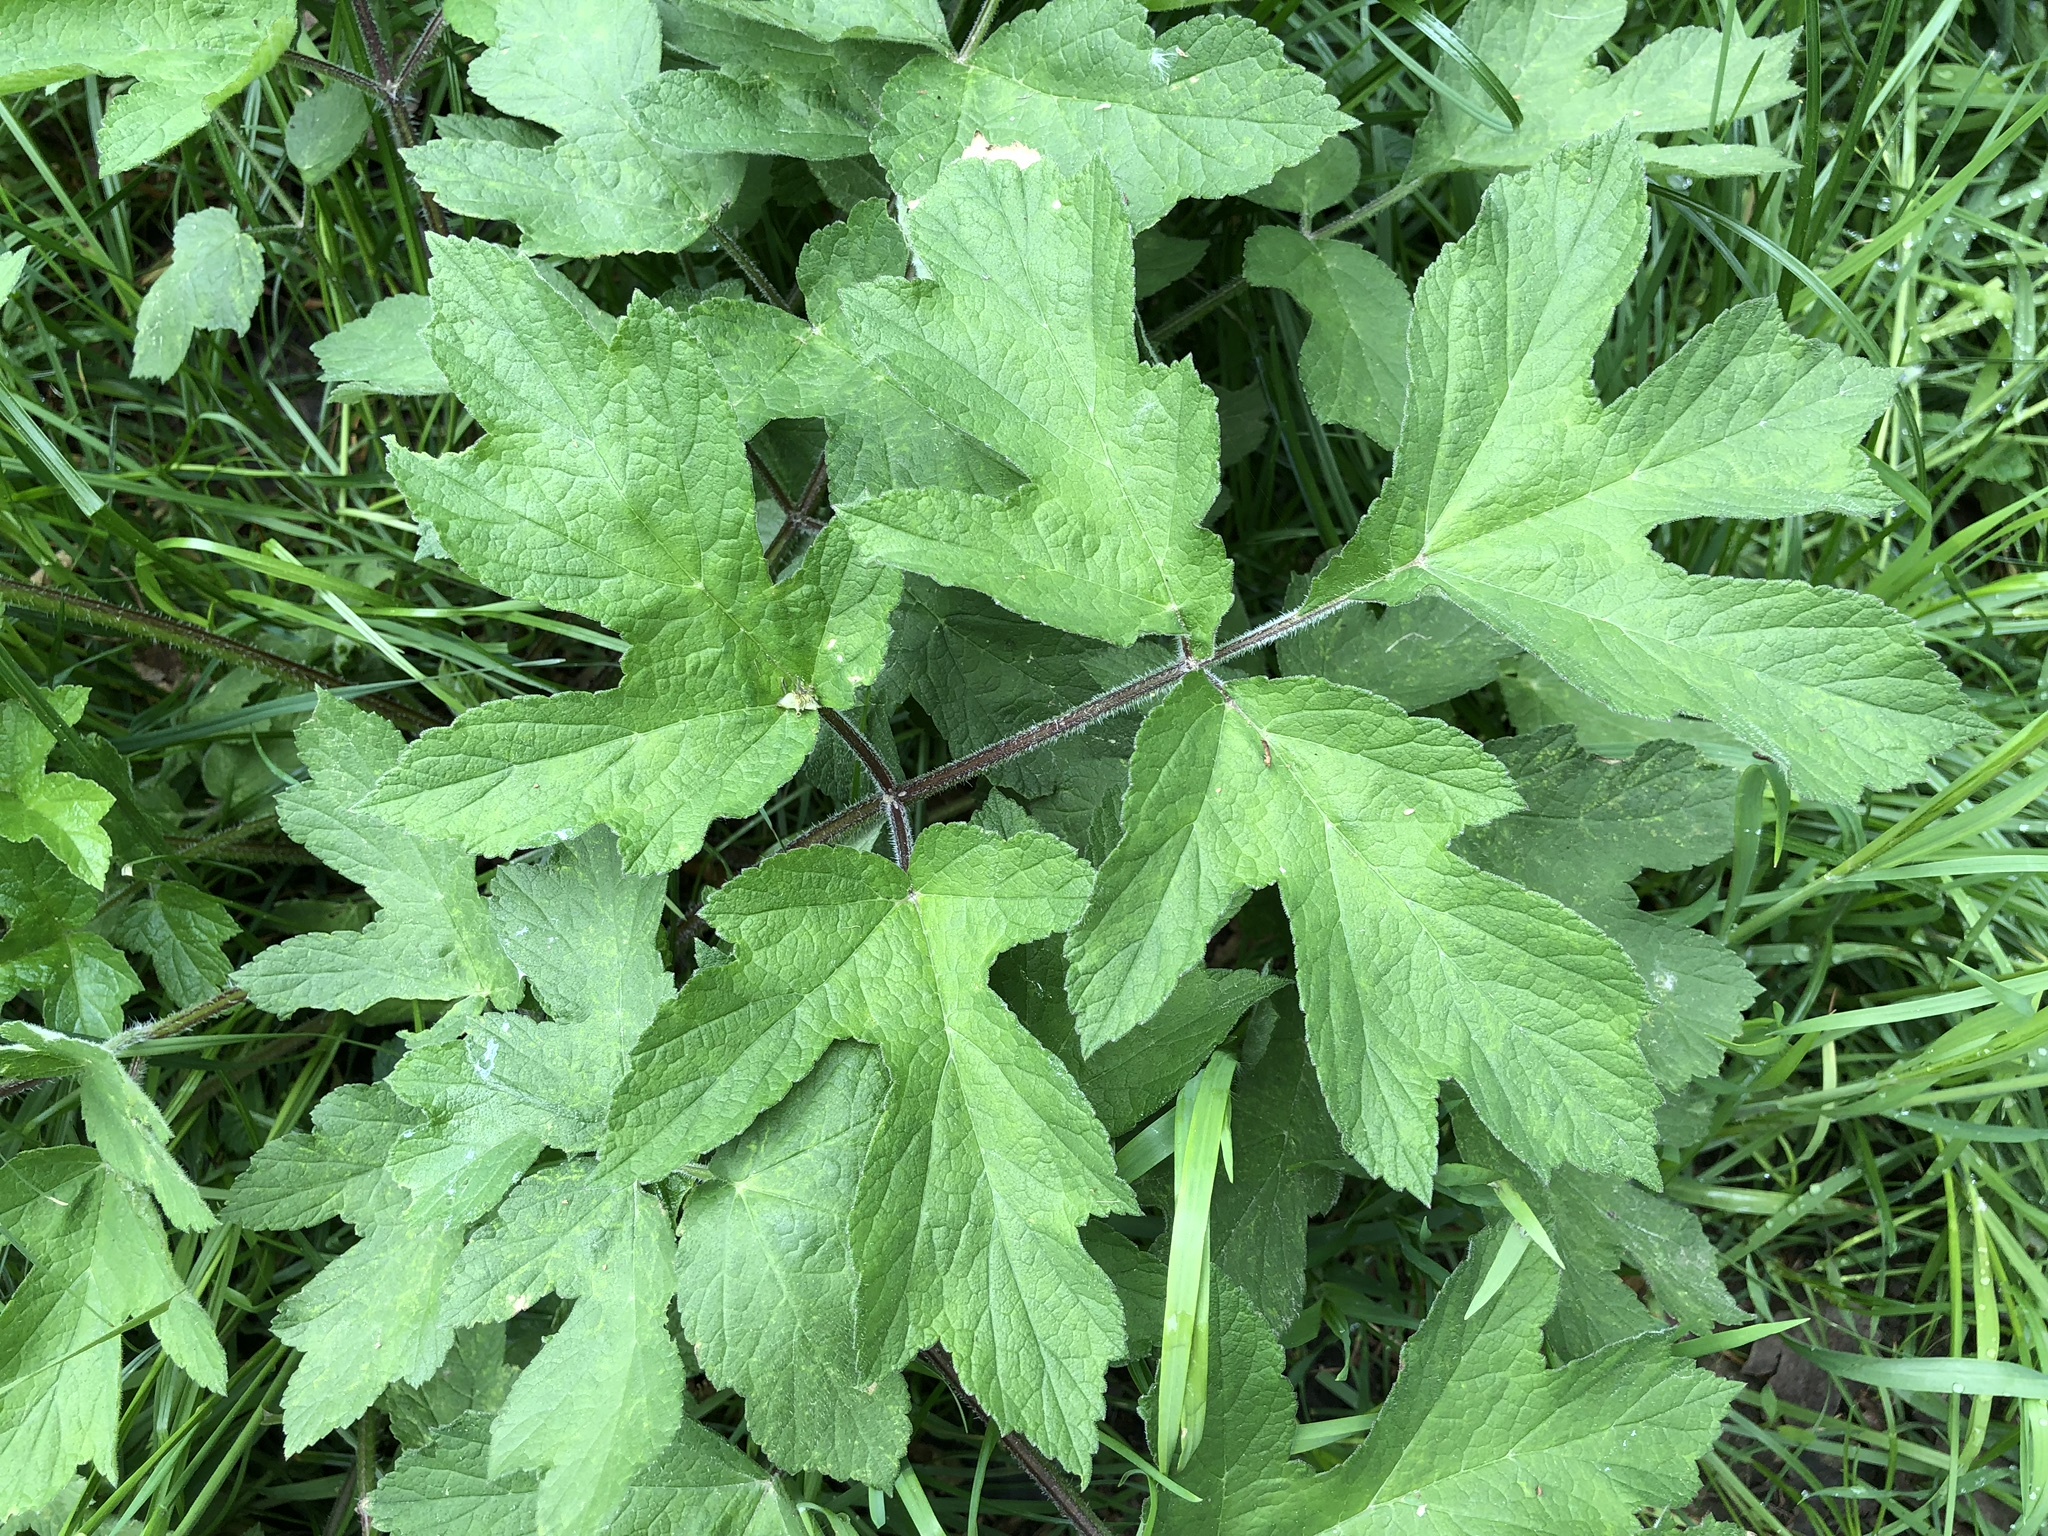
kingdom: Plantae
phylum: Tracheophyta
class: Magnoliopsida
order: Apiales
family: Apiaceae
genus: Heracleum
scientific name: Heracleum sphondylium
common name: Hogweed
